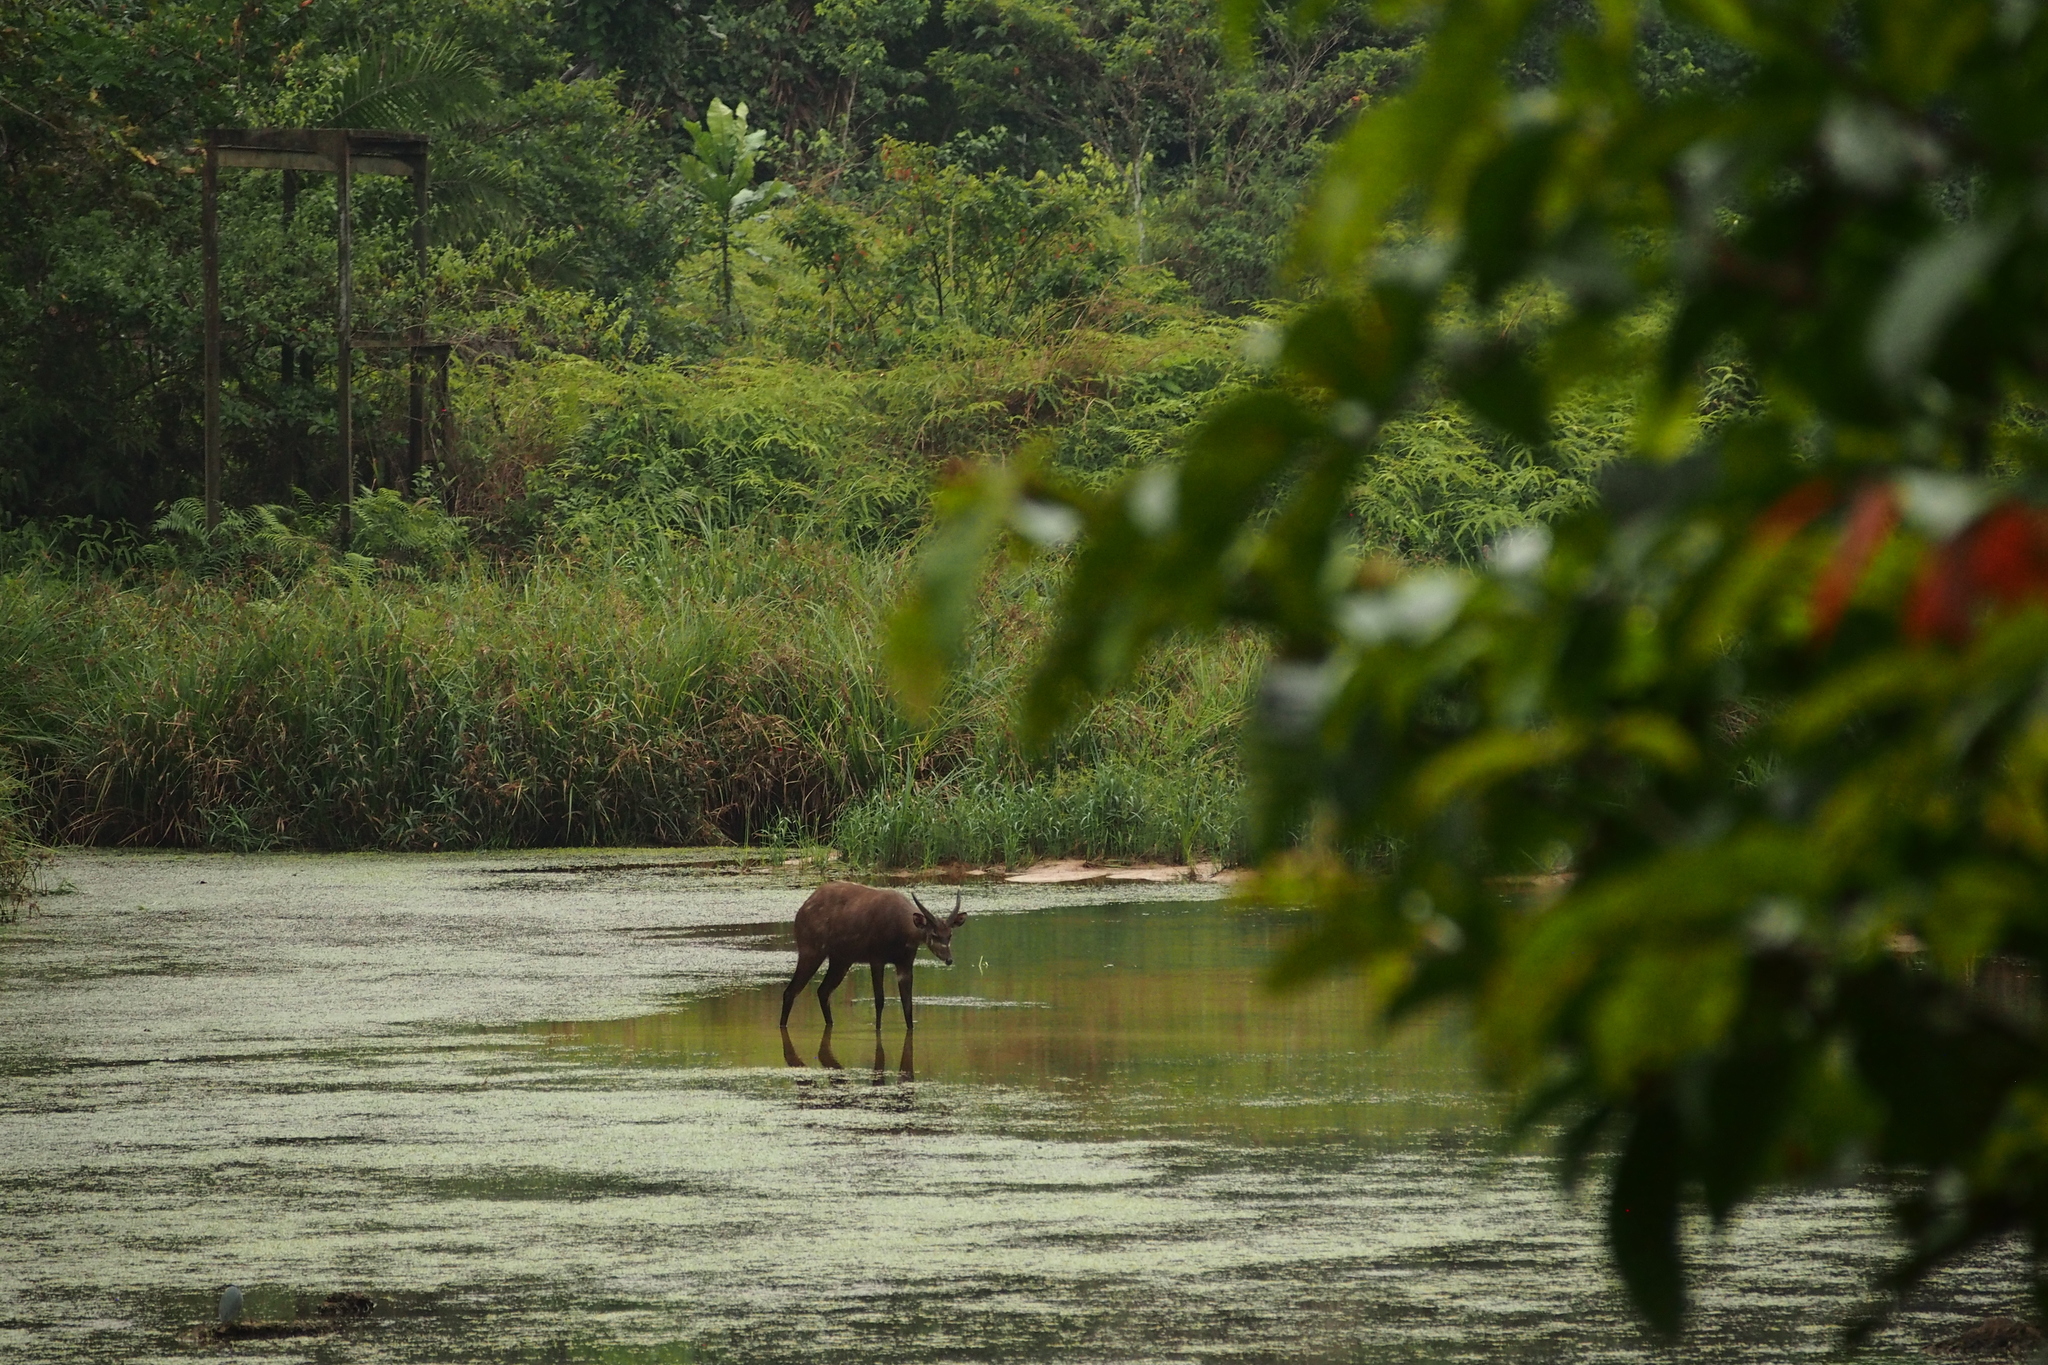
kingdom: Animalia
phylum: Chordata
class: Mammalia
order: Artiodactyla
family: Bovidae
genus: Tragelaphus
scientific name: Tragelaphus spekii
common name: Sitatunga
